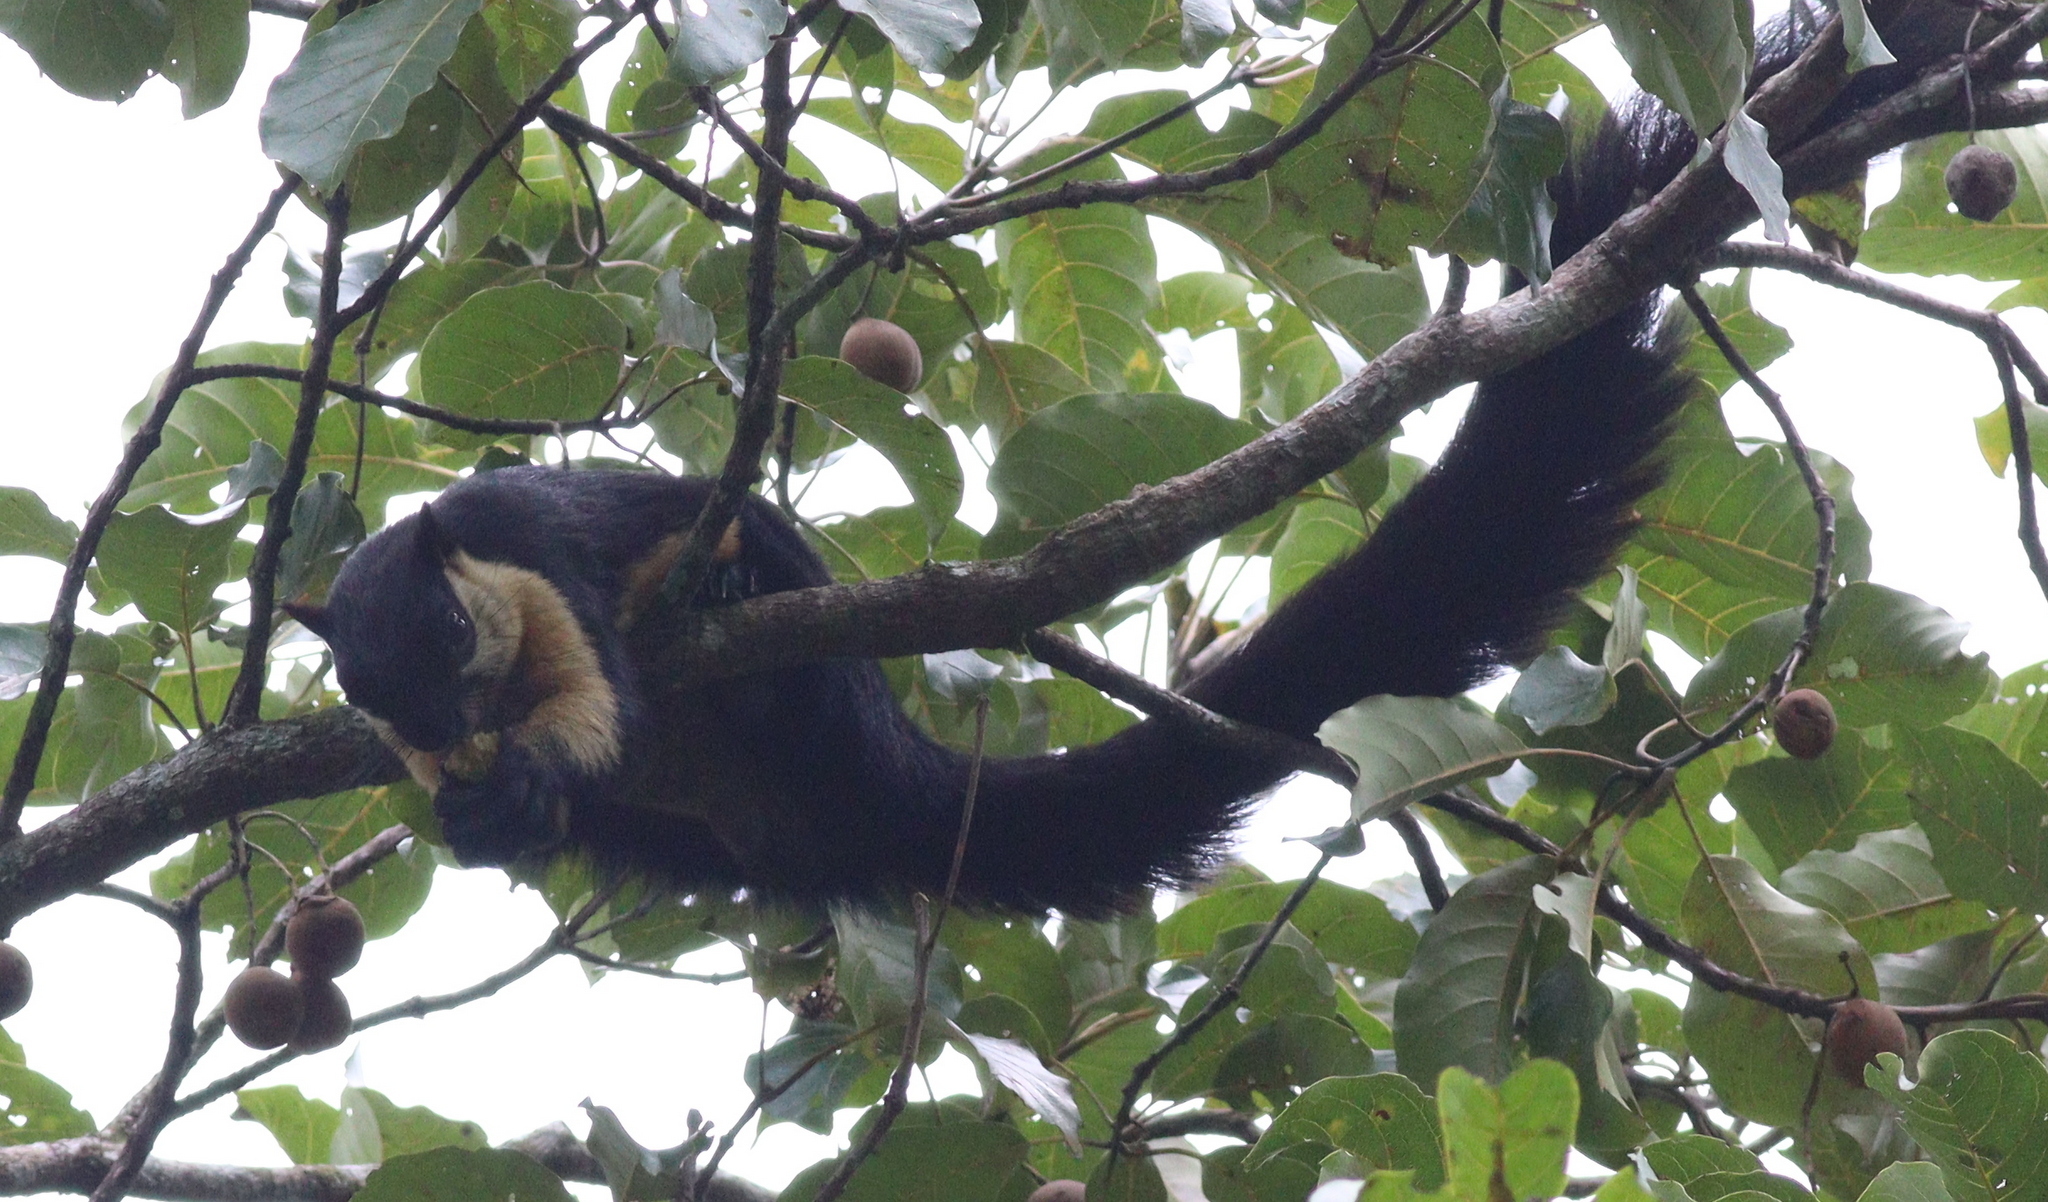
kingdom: Animalia
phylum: Chordata
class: Mammalia
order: Rodentia
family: Sciuridae
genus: Ratufa
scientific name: Ratufa bicolor
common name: Black giant squirrel
